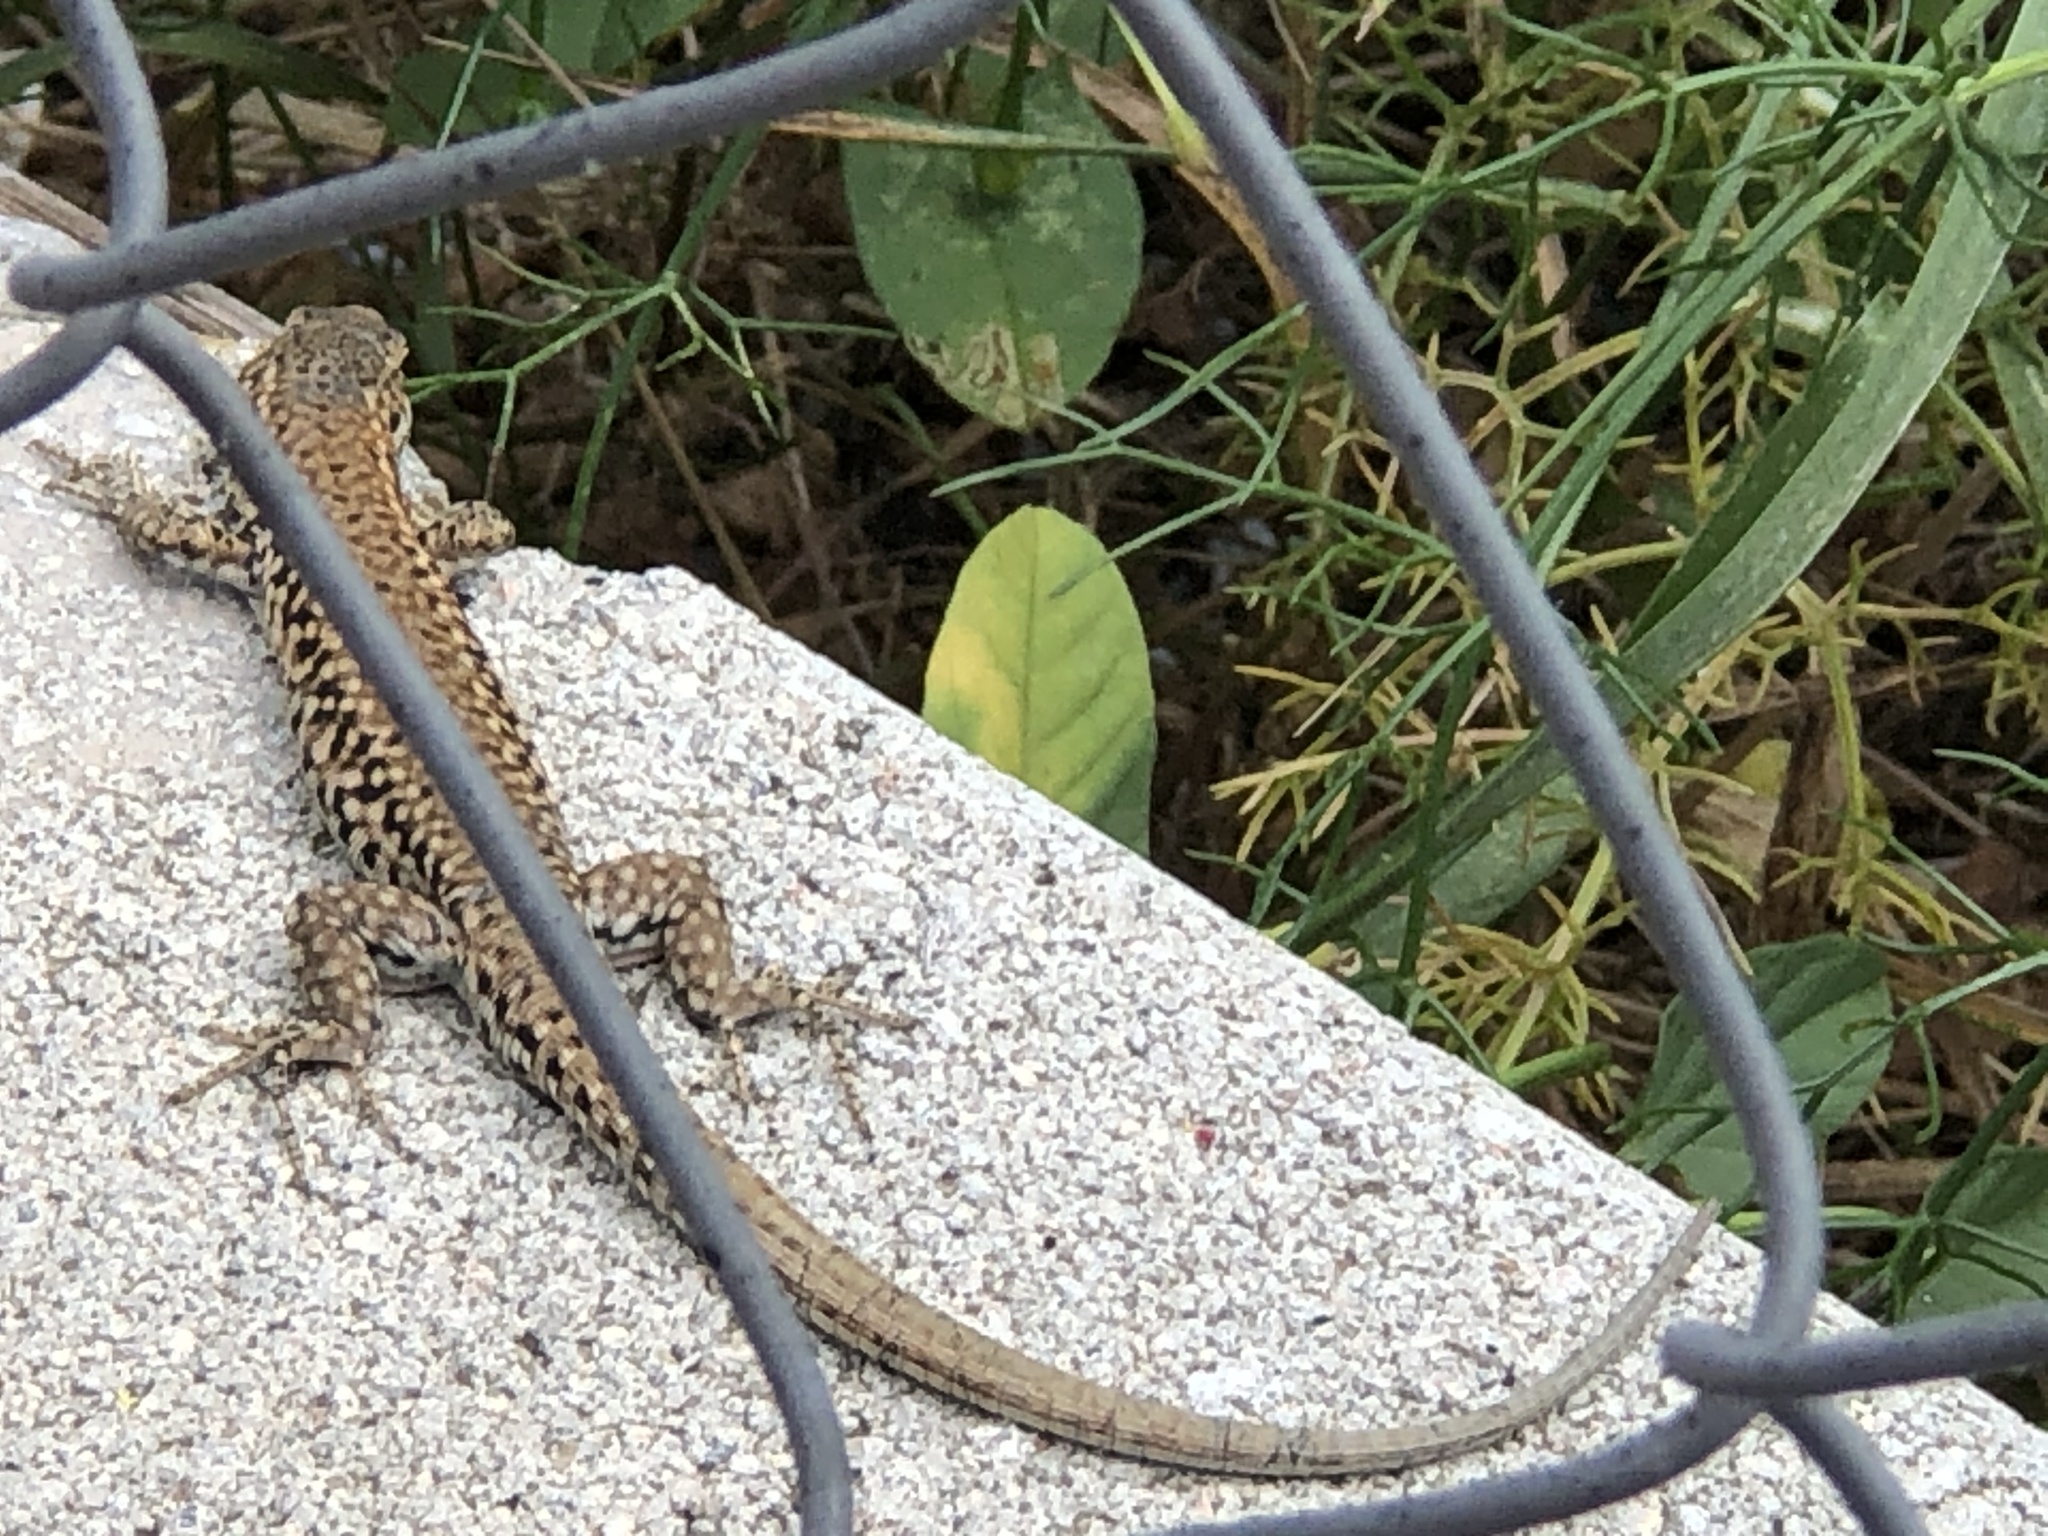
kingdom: Animalia
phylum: Chordata
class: Squamata
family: Lacertidae
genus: Podarcis
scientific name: Podarcis liolepis
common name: Catalonian wall lizard
